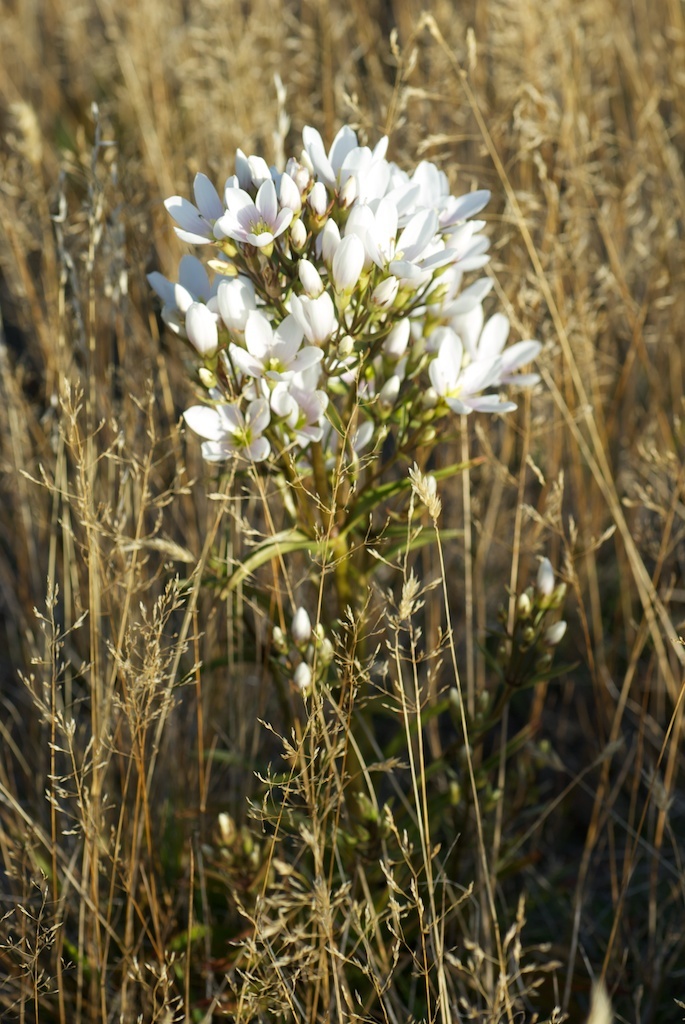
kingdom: Plantae
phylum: Tracheophyta
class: Magnoliopsida
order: Gentianales
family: Gentianaceae
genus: Gentianella
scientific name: Gentianella corymbifera
